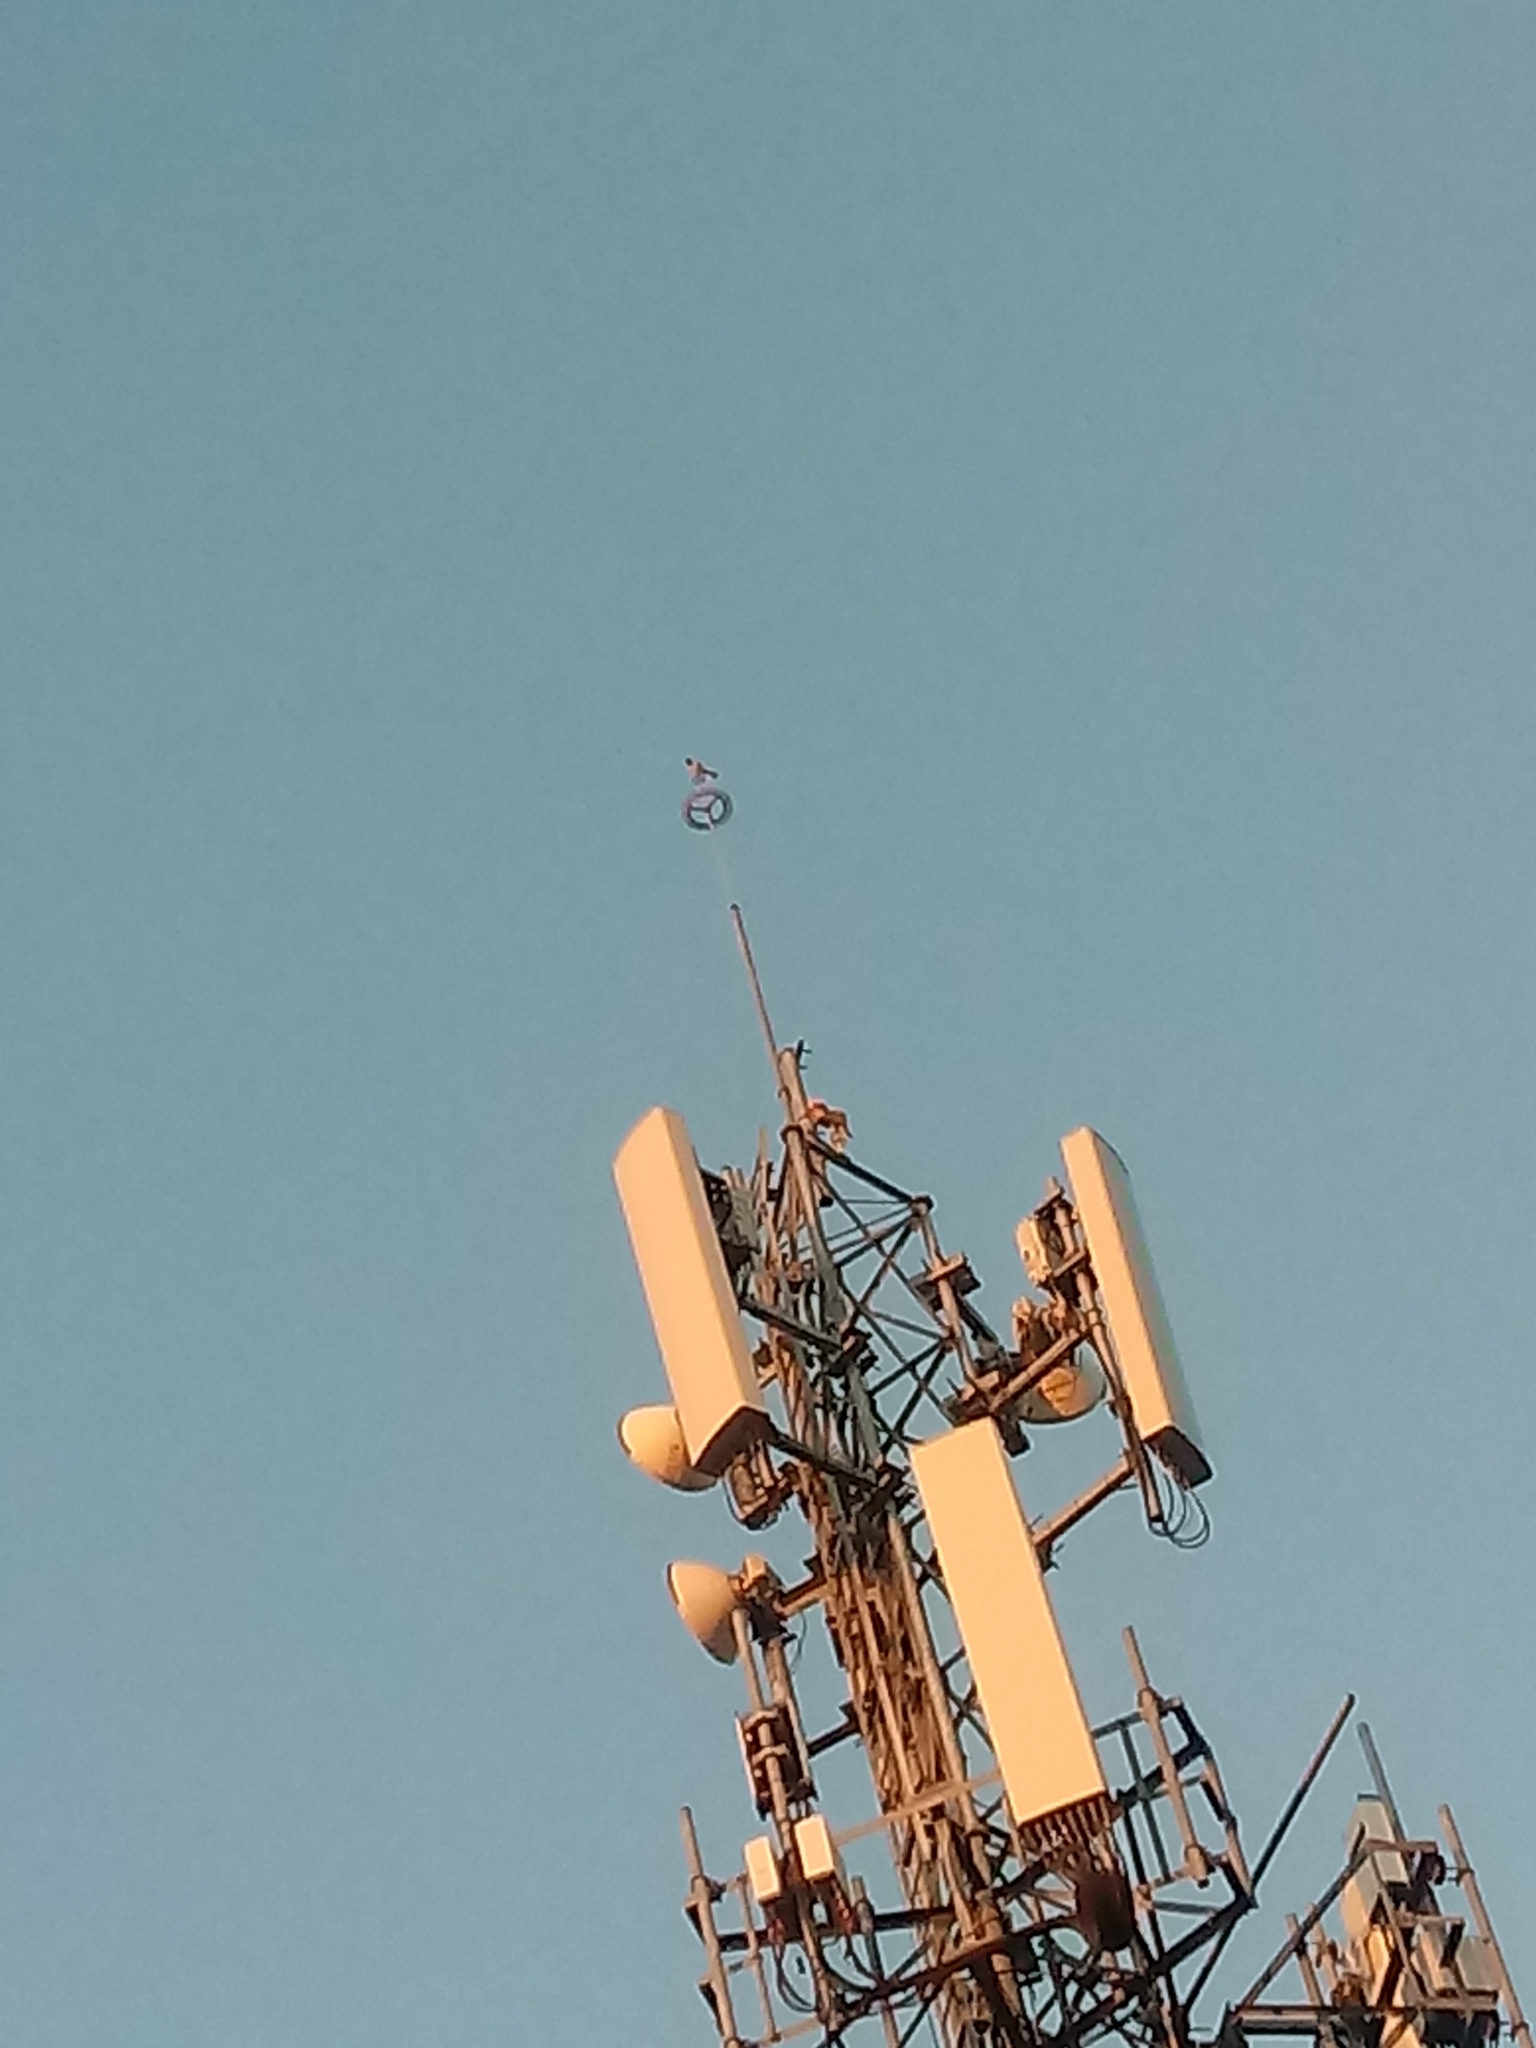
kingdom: Animalia
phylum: Chordata
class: Aves
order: Falconiformes
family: Falconidae
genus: Falco
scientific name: Falco sparverius
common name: American kestrel
